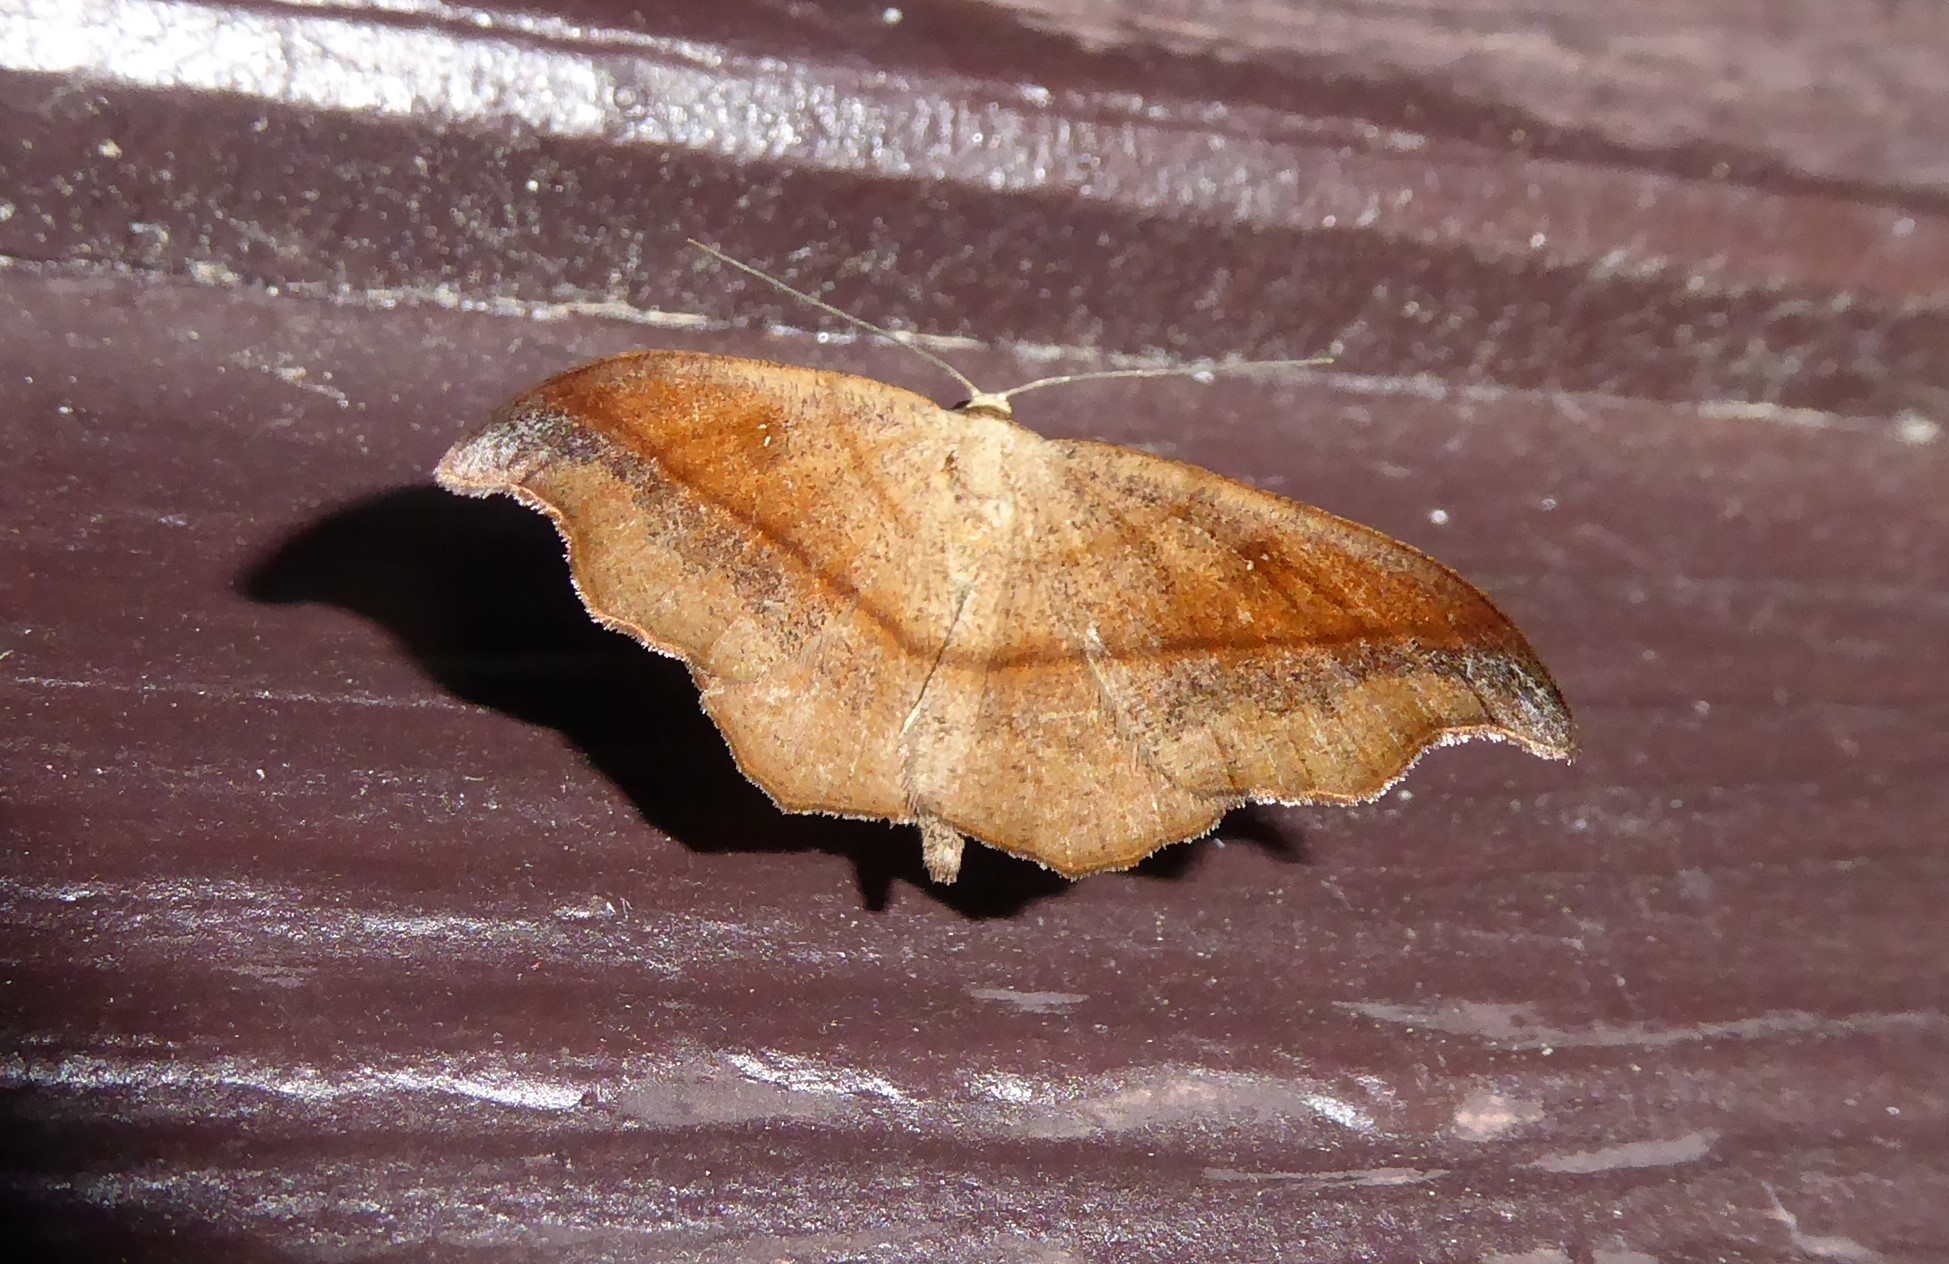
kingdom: Animalia
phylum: Arthropoda
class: Insecta
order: Lepidoptera
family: Geometridae
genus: Sarisa
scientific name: Sarisa muriferata
